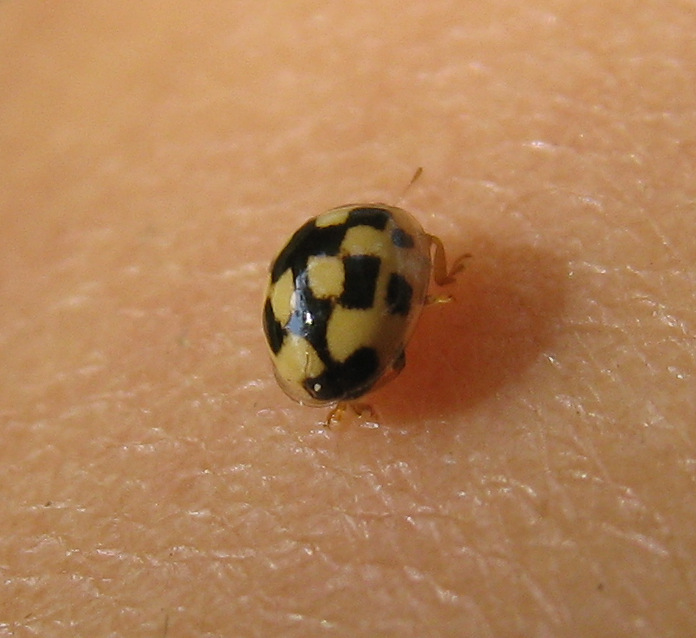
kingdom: Animalia
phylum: Arthropoda
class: Insecta
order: Coleoptera
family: Coccinellidae
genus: Propylaea
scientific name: Propylaea quatuordecimpunctata
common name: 14-spotted ladybird beetle
